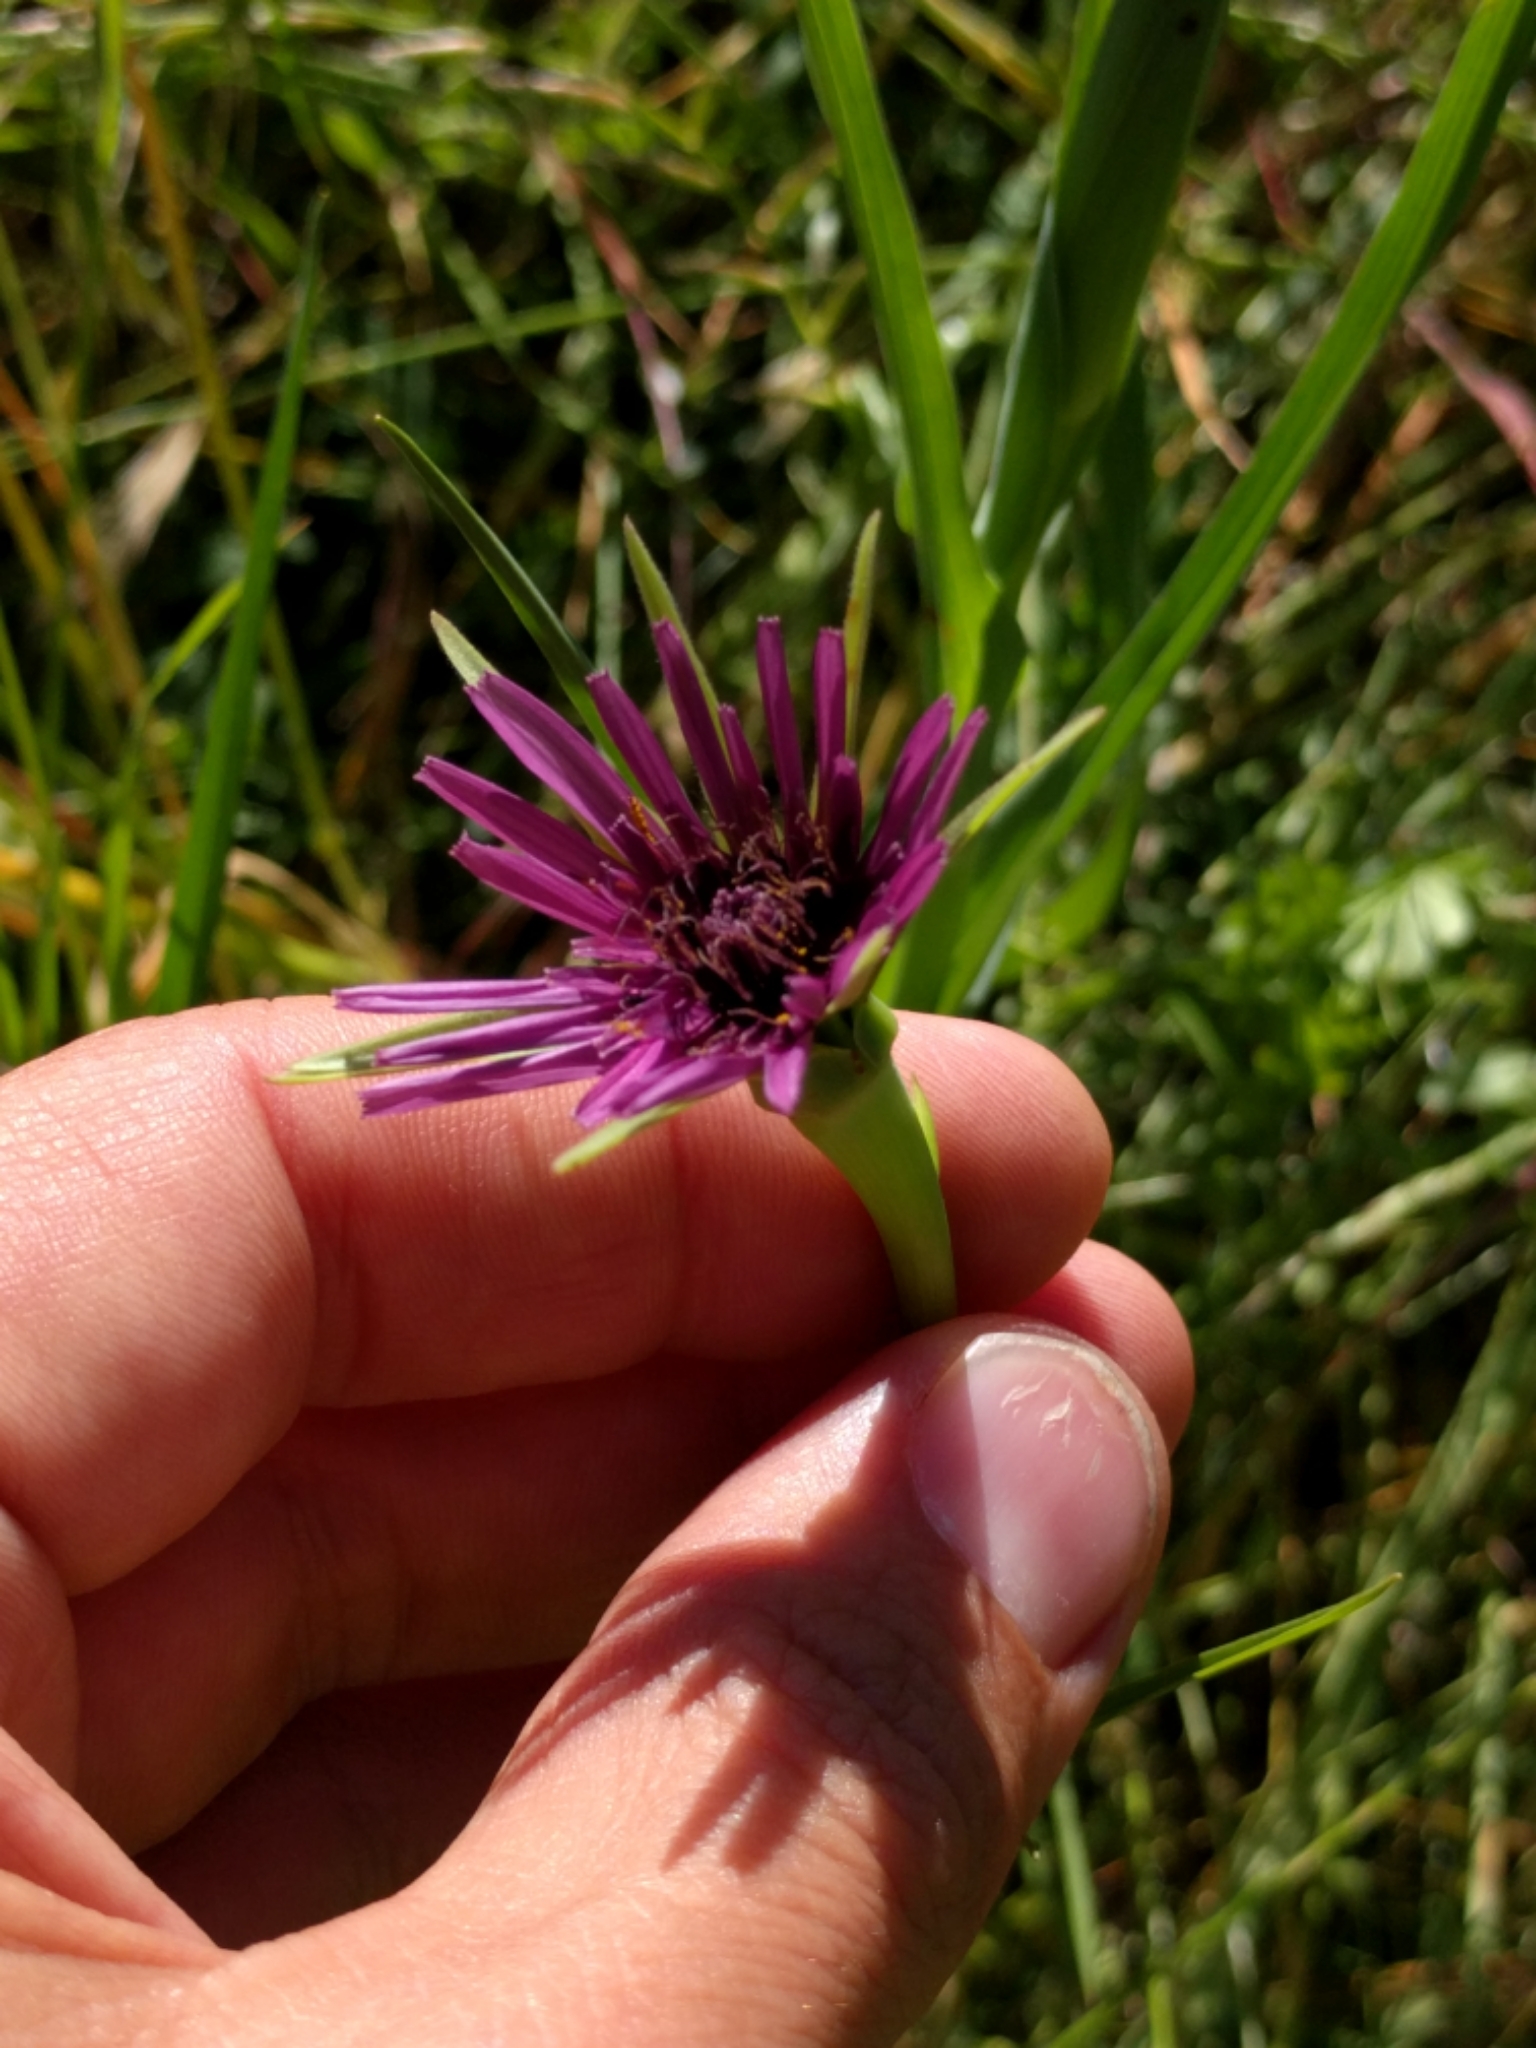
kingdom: Plantae
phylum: Tracheophyta
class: Magnoliopsida
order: Asterales
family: Asteraceae
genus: Tragopogon
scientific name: Tragopogon porrifolius
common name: Salsify
